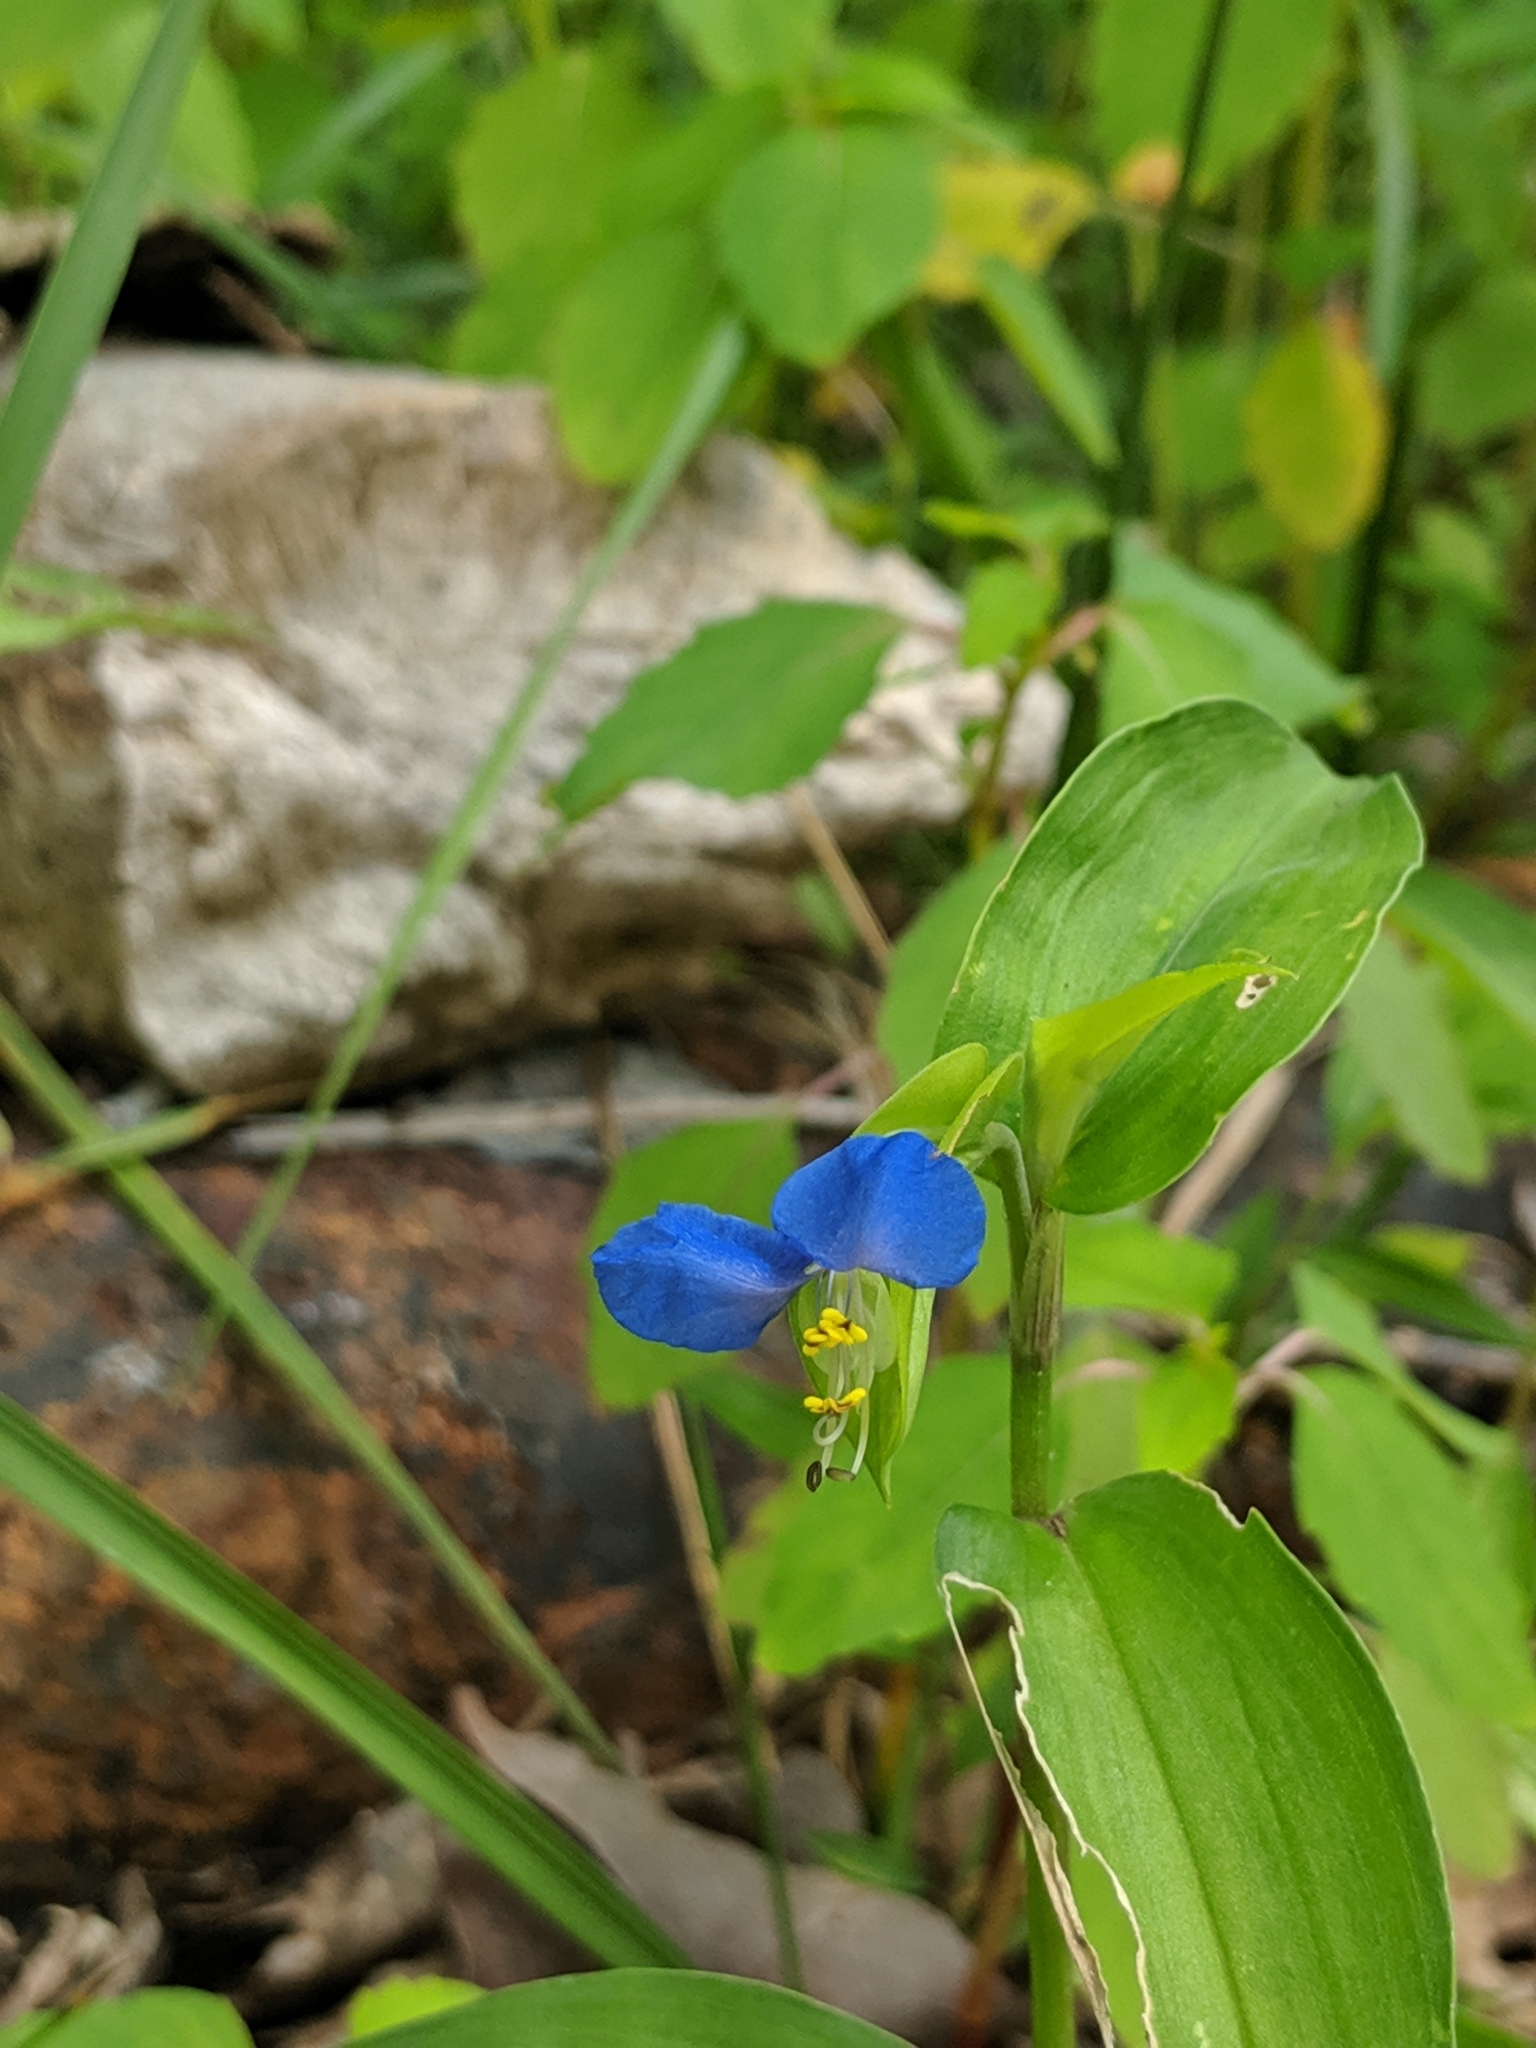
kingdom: Plantae
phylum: Tracheophyta
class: Liliopsida
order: Commelinales
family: Commelinaceae
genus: Commelina
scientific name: Commelina communis
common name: Asiatic dayflower
